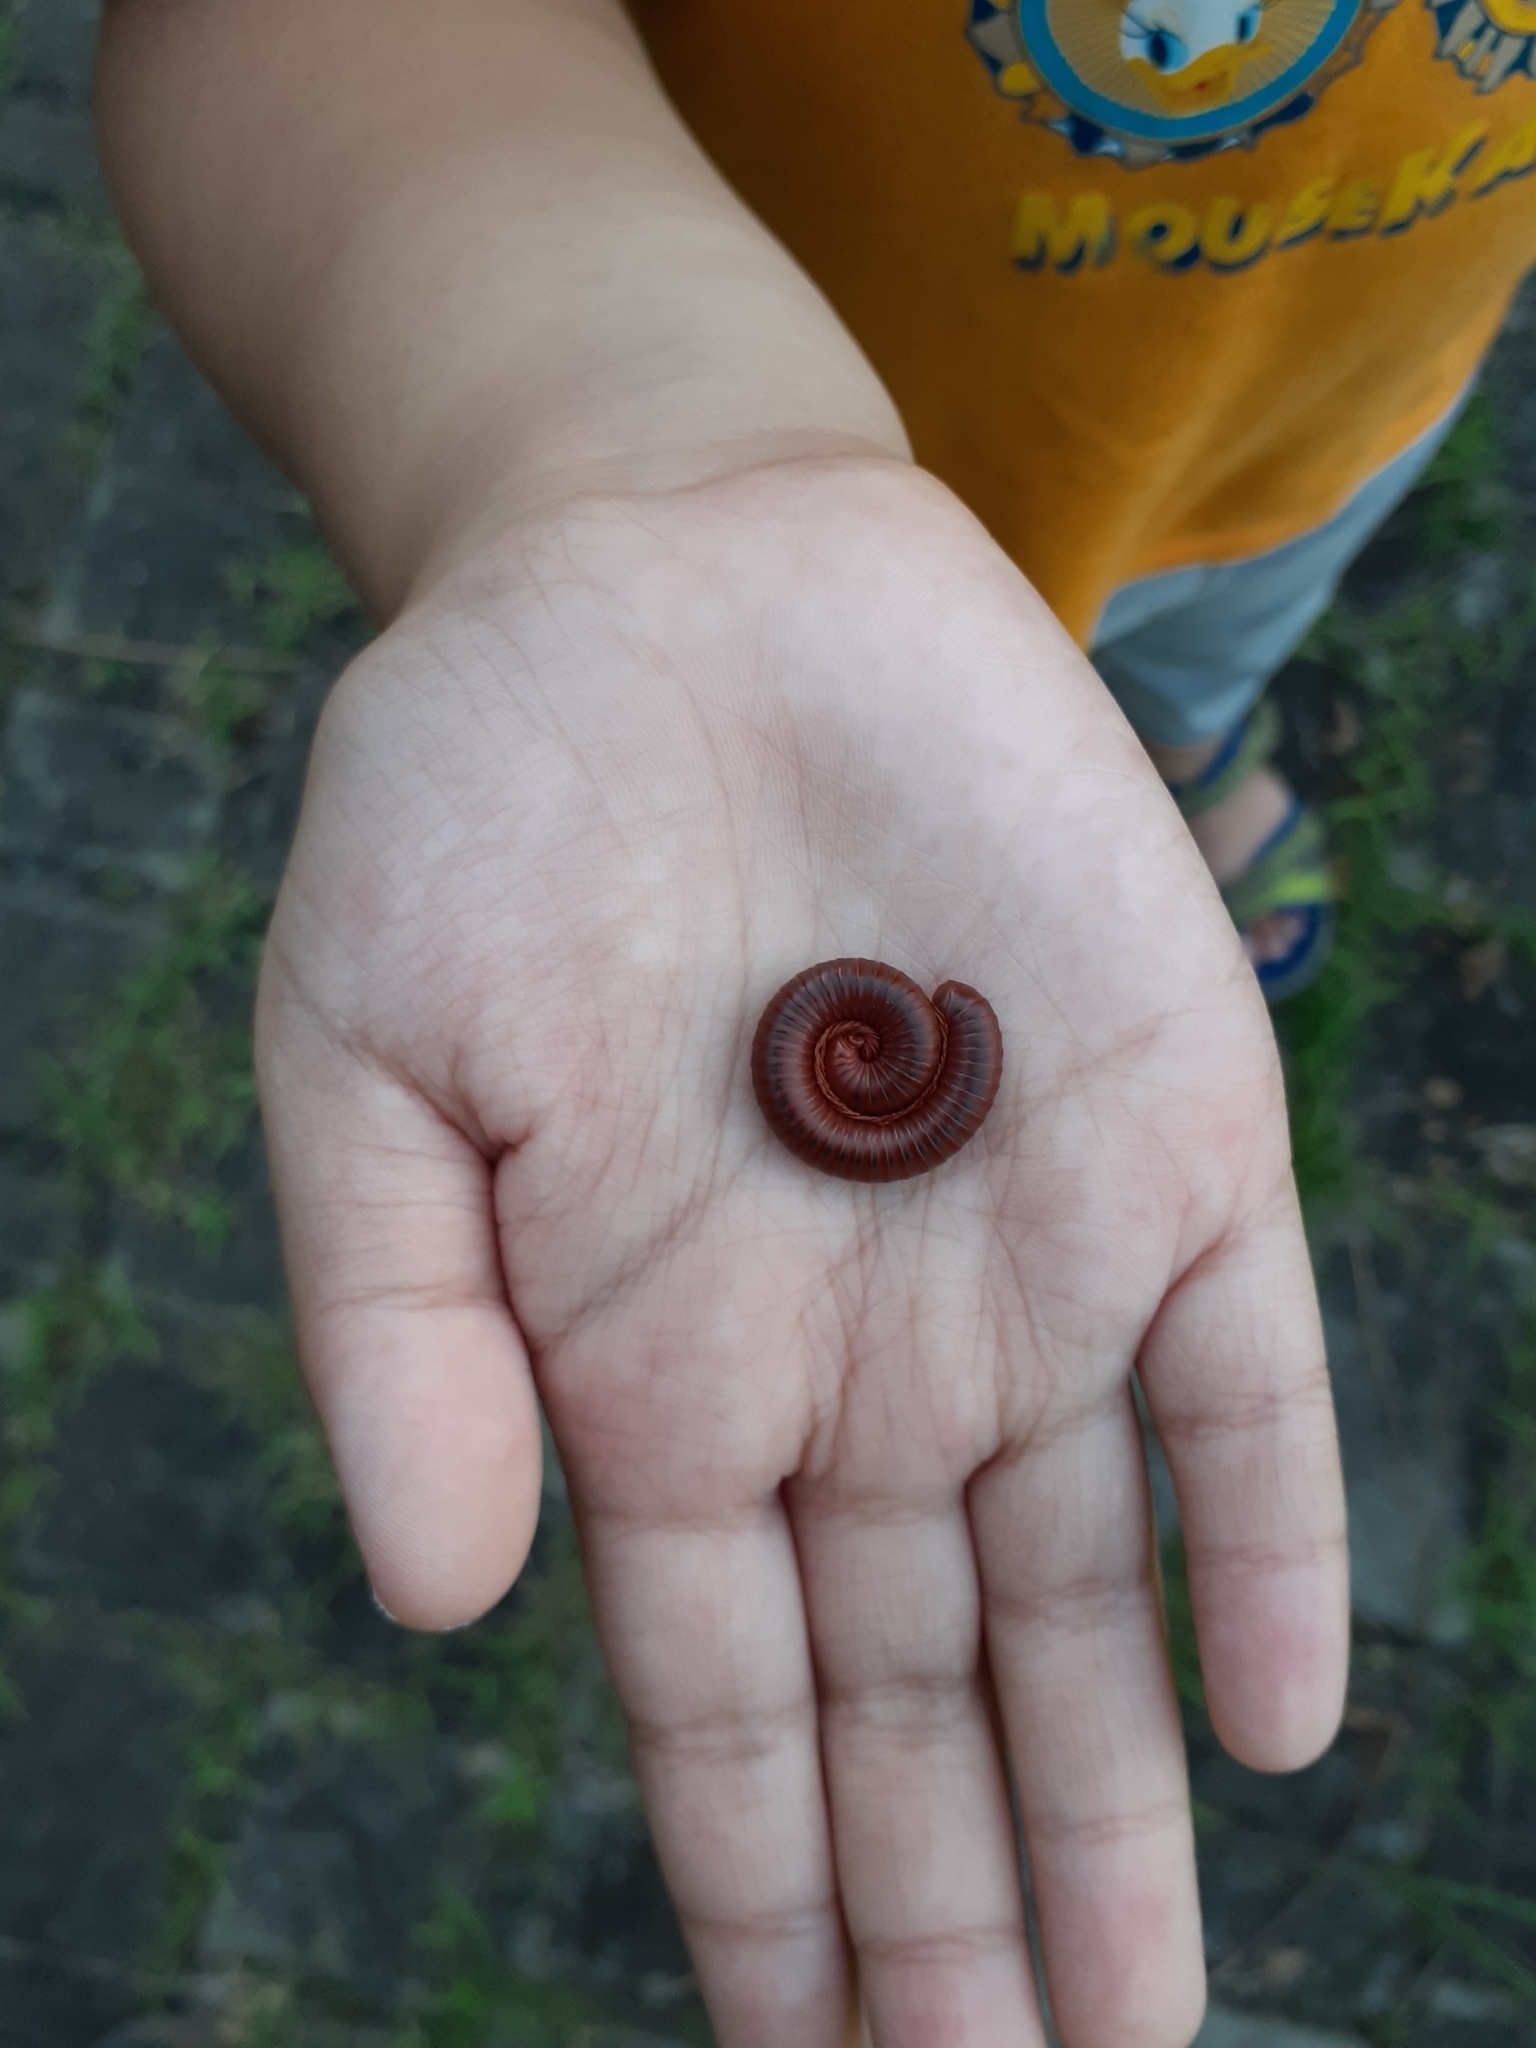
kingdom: Animalia
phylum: Arthropoda
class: Diplopoda
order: Spirobolida
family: Pachybolidae
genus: Trigoniulus
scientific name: Trigoniulus corallinus
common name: Millipede
